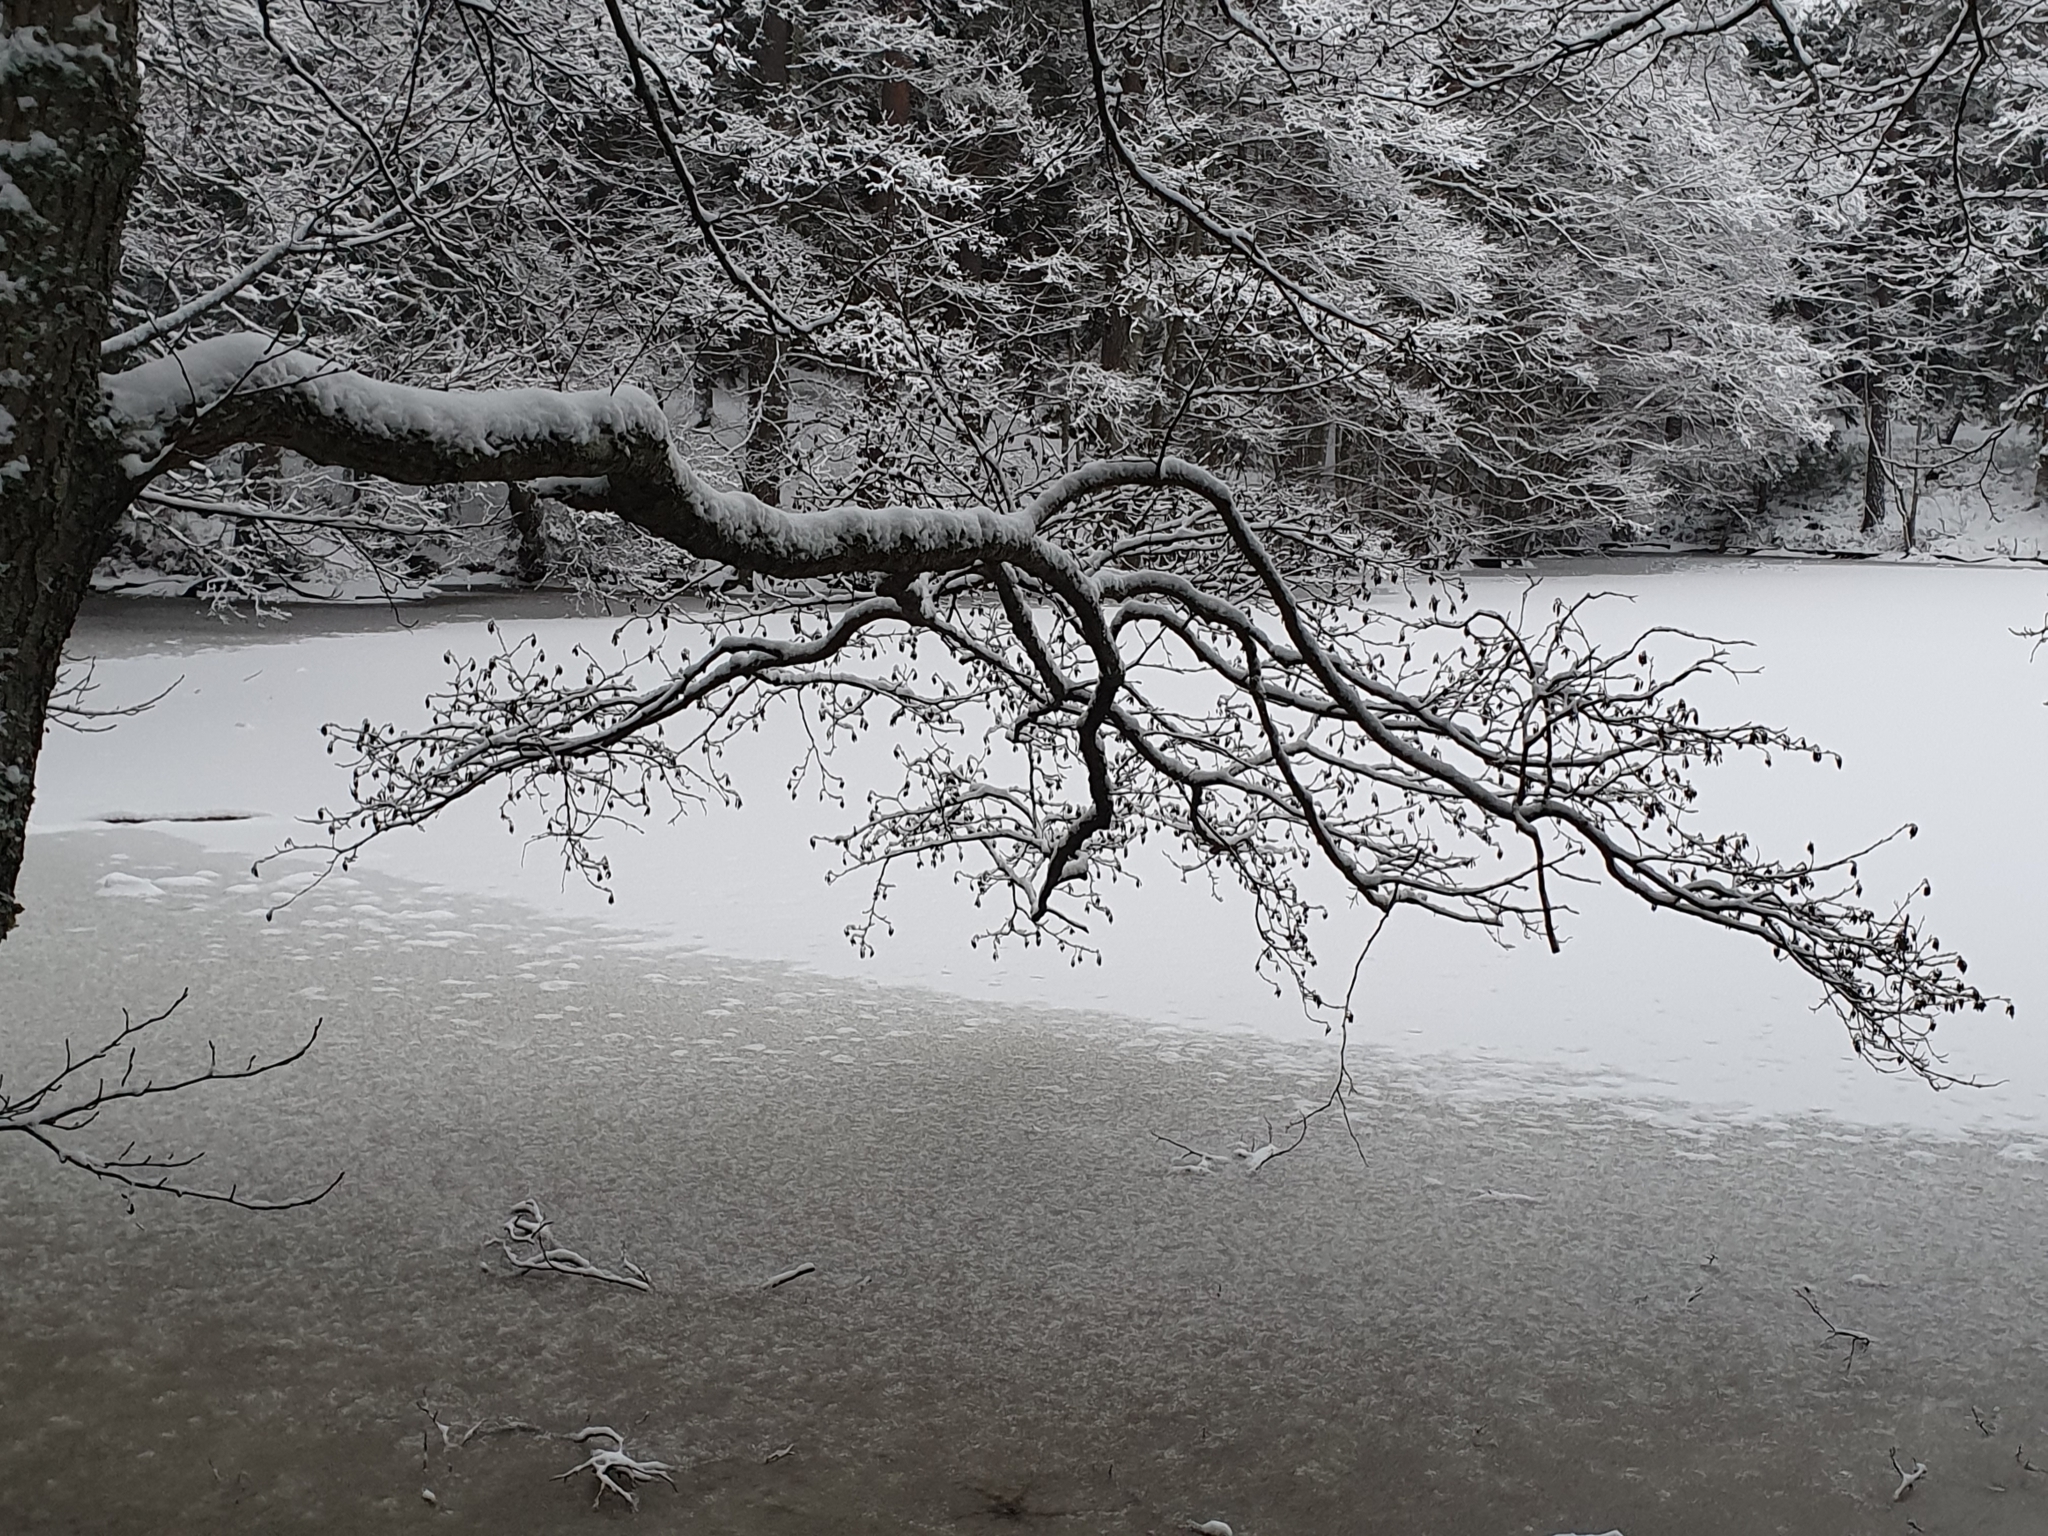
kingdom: Plantae
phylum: Tracheophyta
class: Magnoliopsida
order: Fagales
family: Betulaceae
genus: Alnus
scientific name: Alnus glutinosa
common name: Black alder
